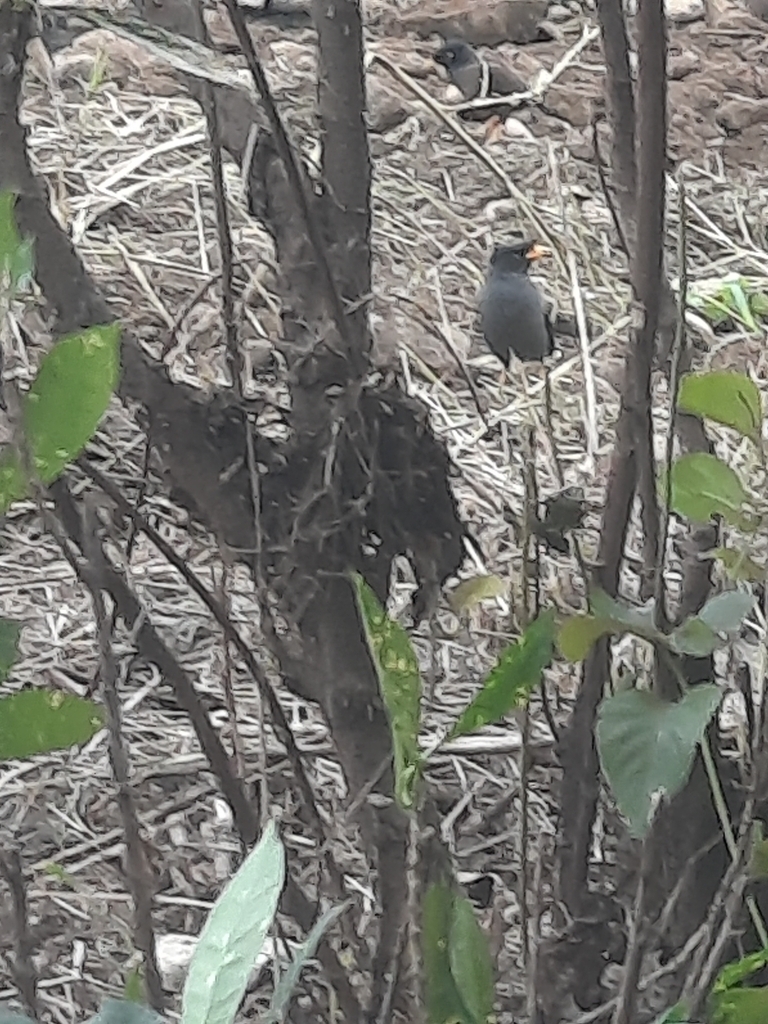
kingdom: Animalia
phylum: Chordata
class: Aves
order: Passeriformes
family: Sturnidae
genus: Acridotheres
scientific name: Acridotheres javanicus
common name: Javan myna
